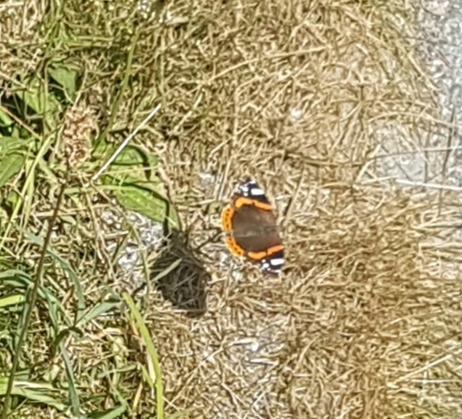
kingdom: Animalia
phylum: Arthropoda
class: Insecta
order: Lepidoptera
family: Nymphalidae
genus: Vanessa
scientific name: Vanessa atalanta
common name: Red admiral
